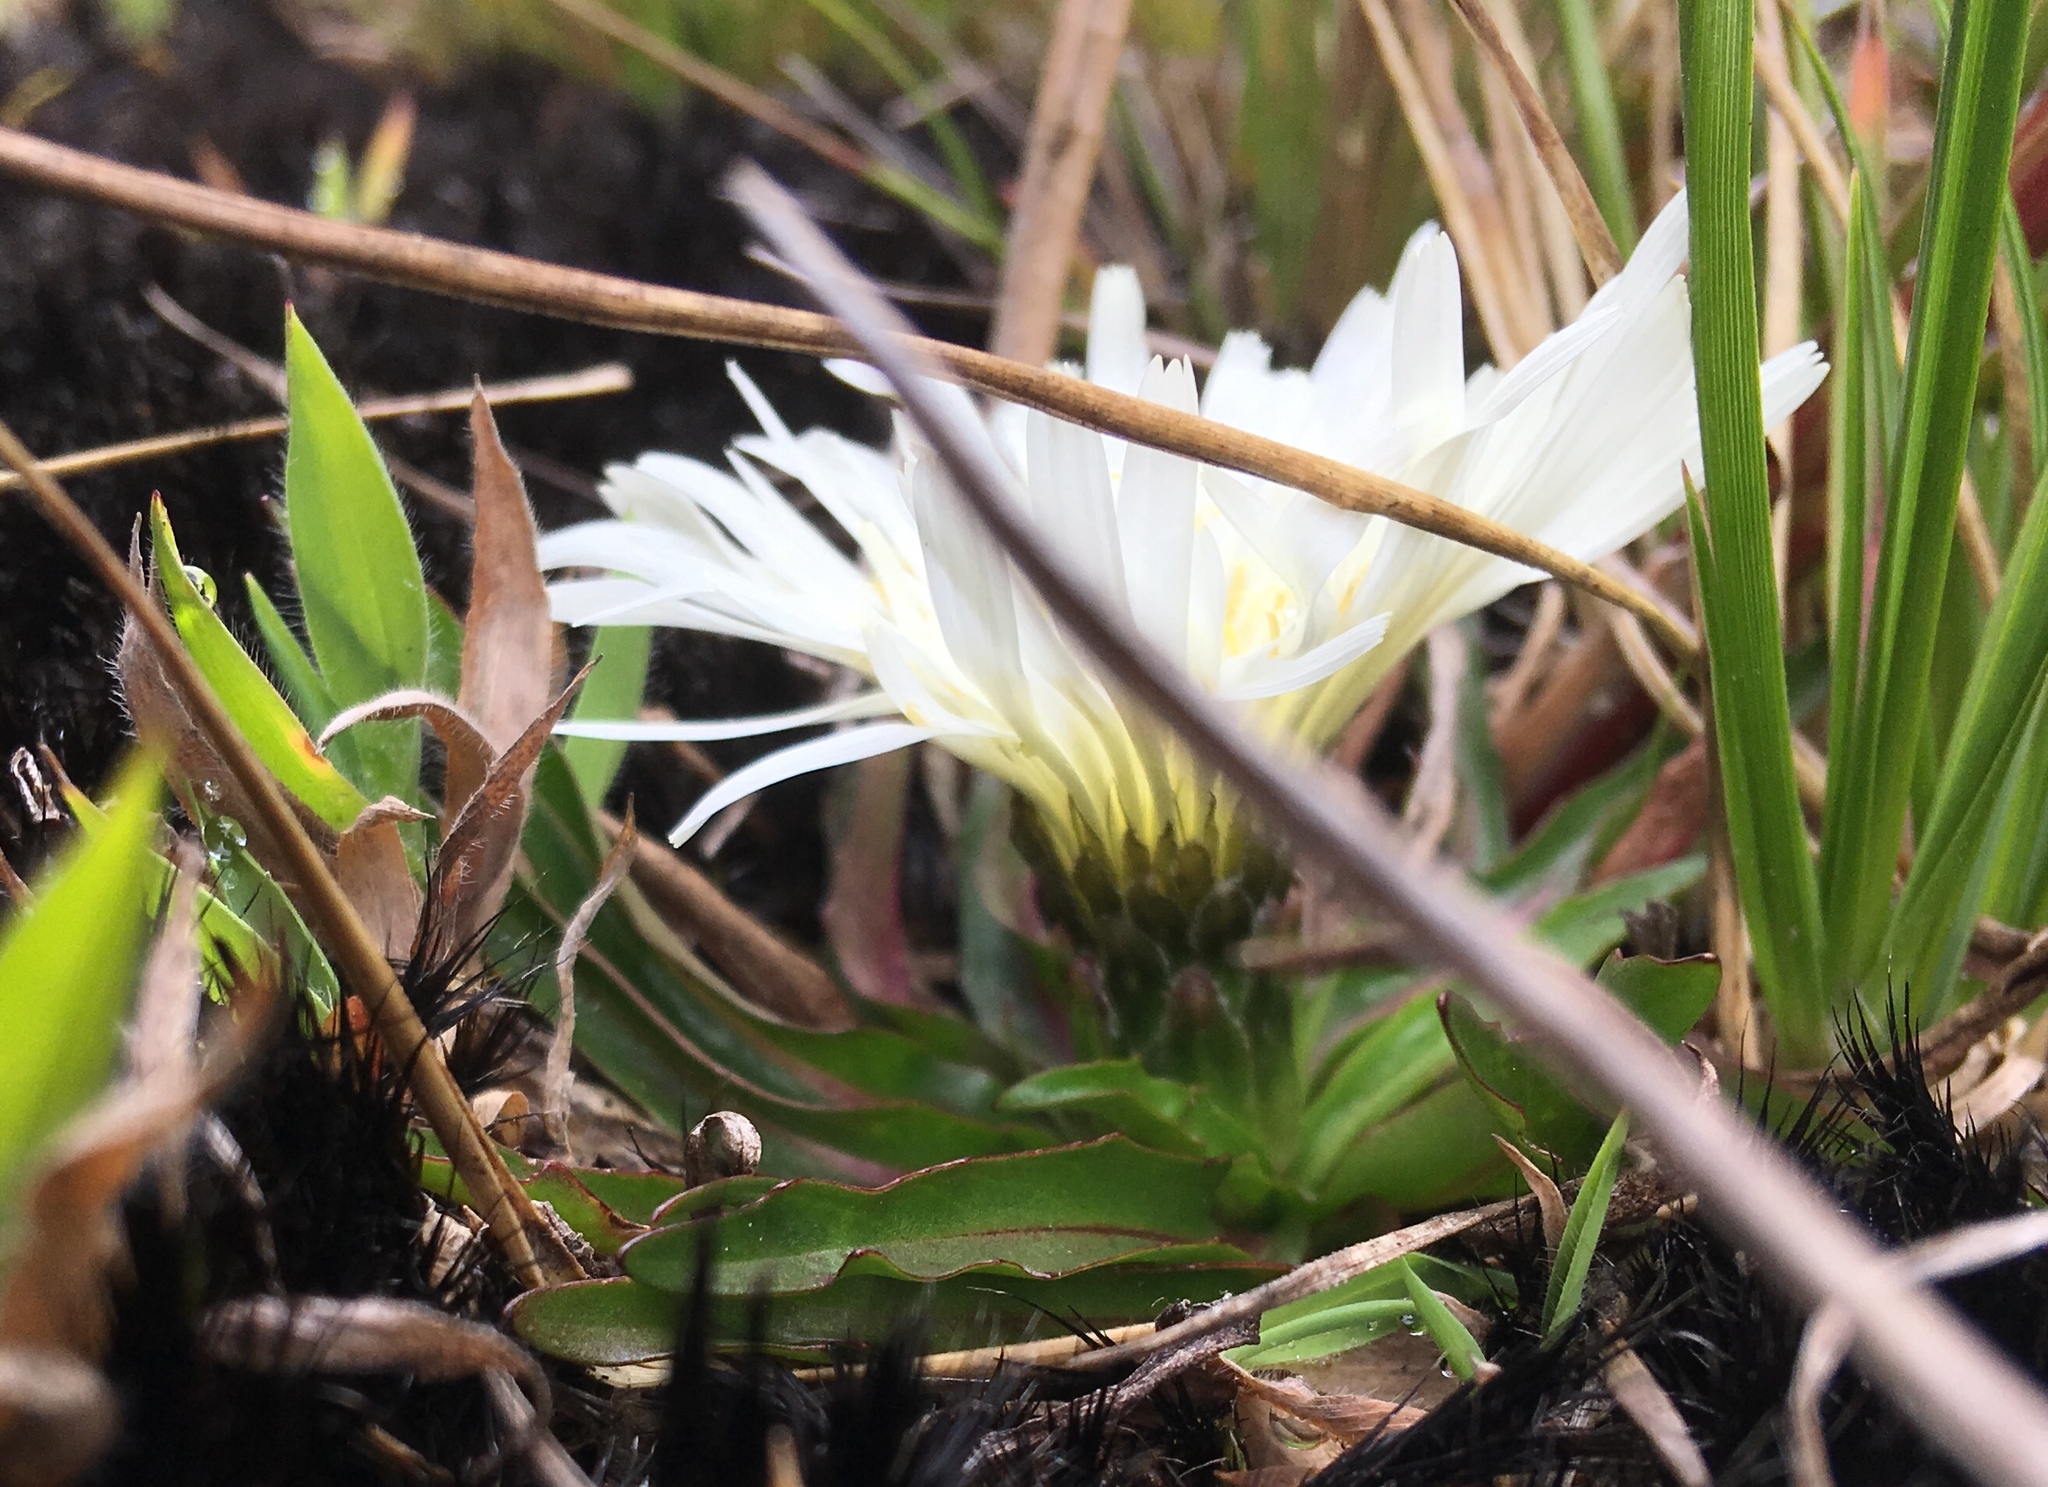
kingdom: Plantae
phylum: Tracheophyta
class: Magnoliopsida
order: Asterales
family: Asteraceae
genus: Hypochaeris
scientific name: Hypochaeris sessiliflora
